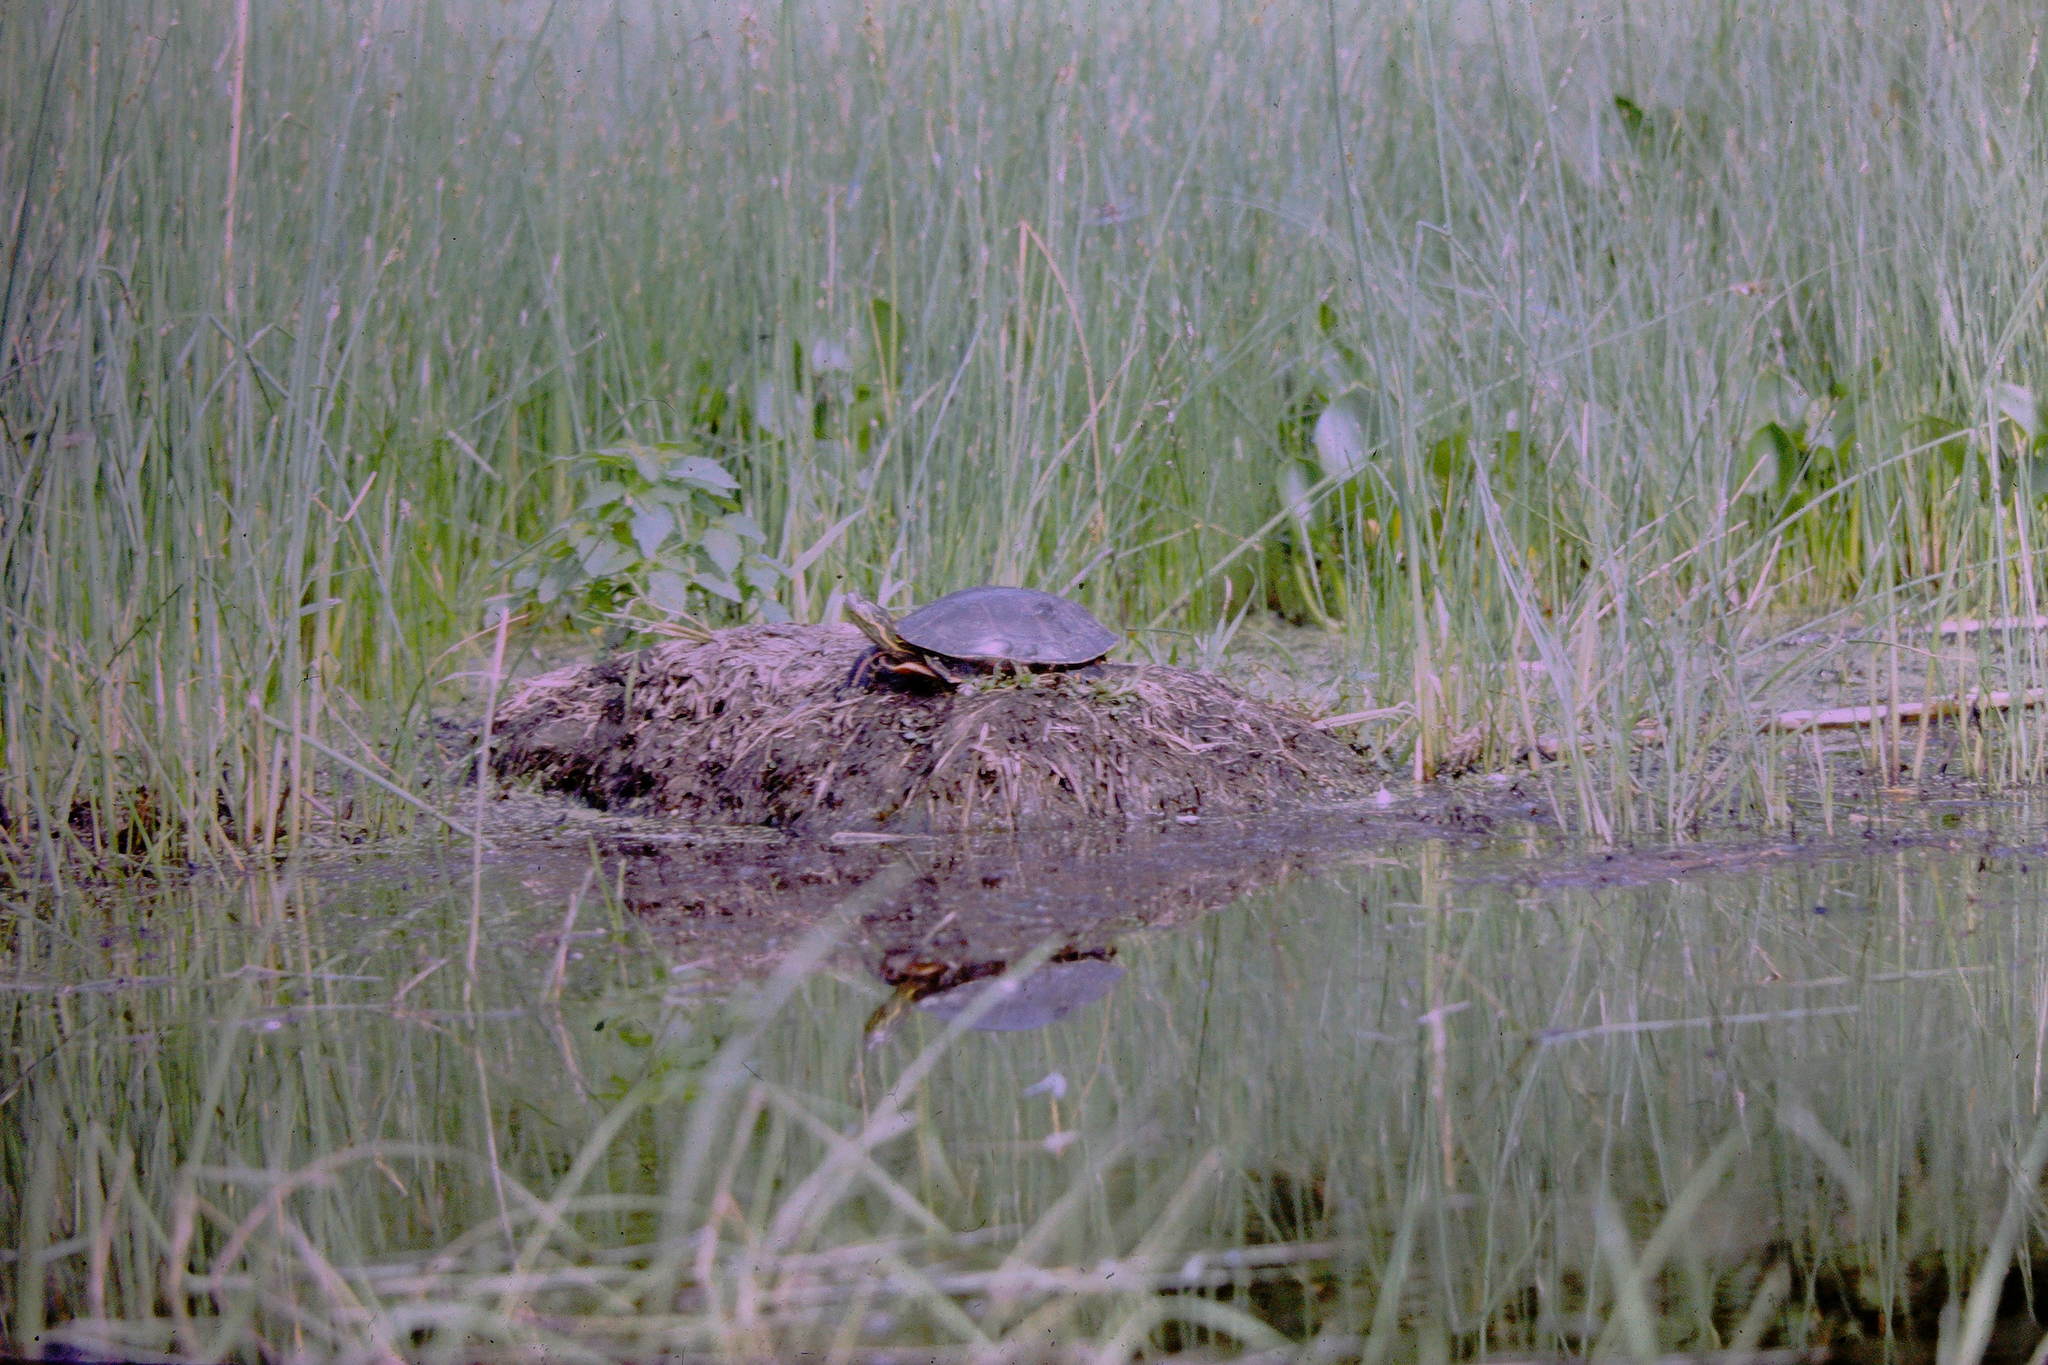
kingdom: Animalia
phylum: Chordata
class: Testudines
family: Emydidae
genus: Chrysemys
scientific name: Chrysemys picta
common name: Painted turtle
